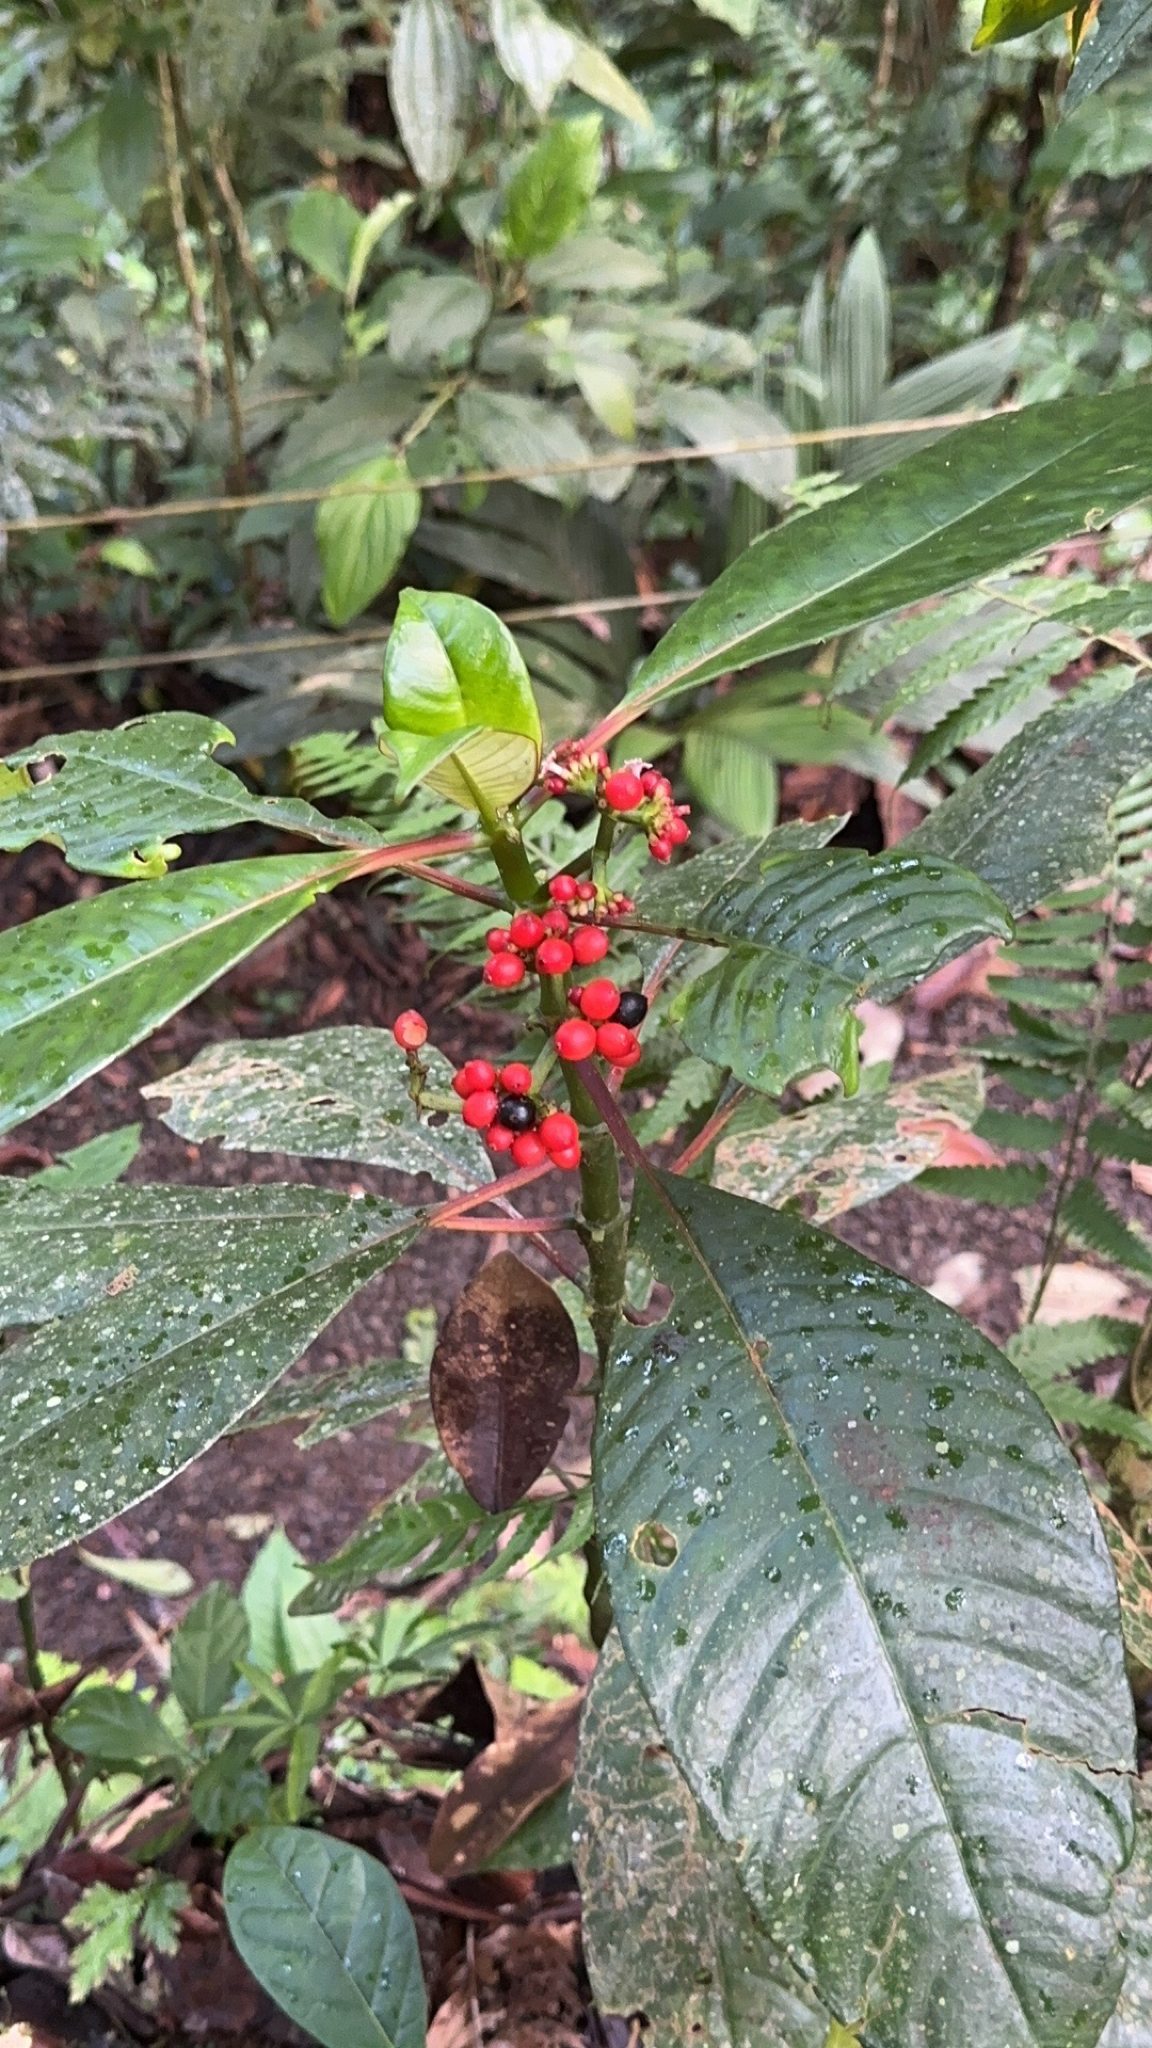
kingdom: Plantae
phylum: Tracheophyta
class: Magnoliopsida
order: Gentianales
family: Rubiaceae
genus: Notopleura
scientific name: Notopleura uliginosa
